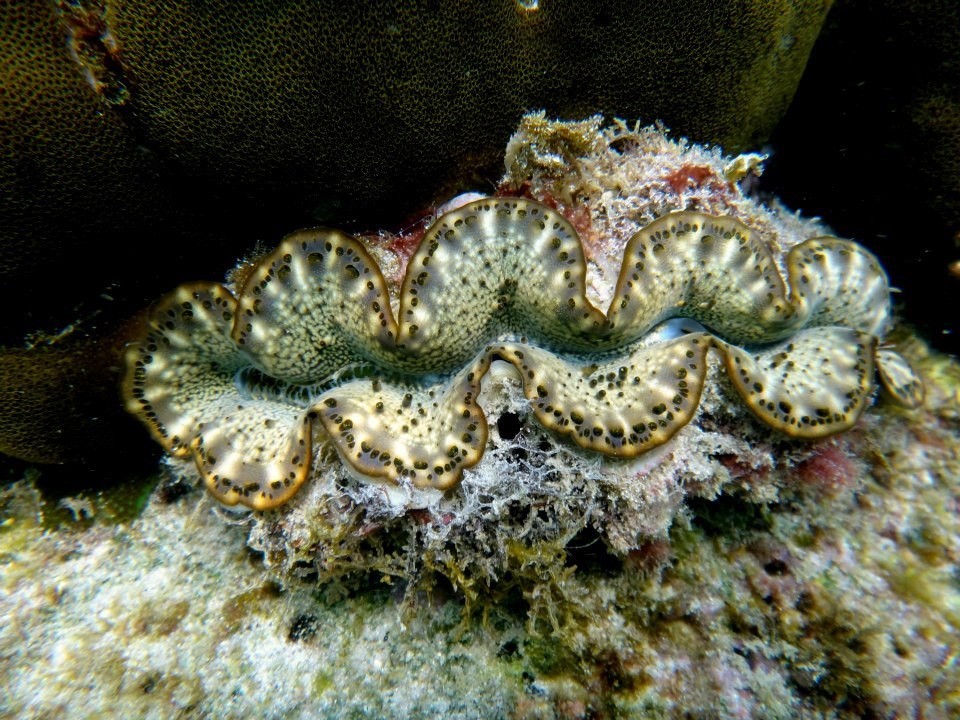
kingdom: Animalia
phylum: Mollusca
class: Bivalvia
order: Cardiida
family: Cardiidae
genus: Tridacna
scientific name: Tridacna maxima
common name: Small giant clam
